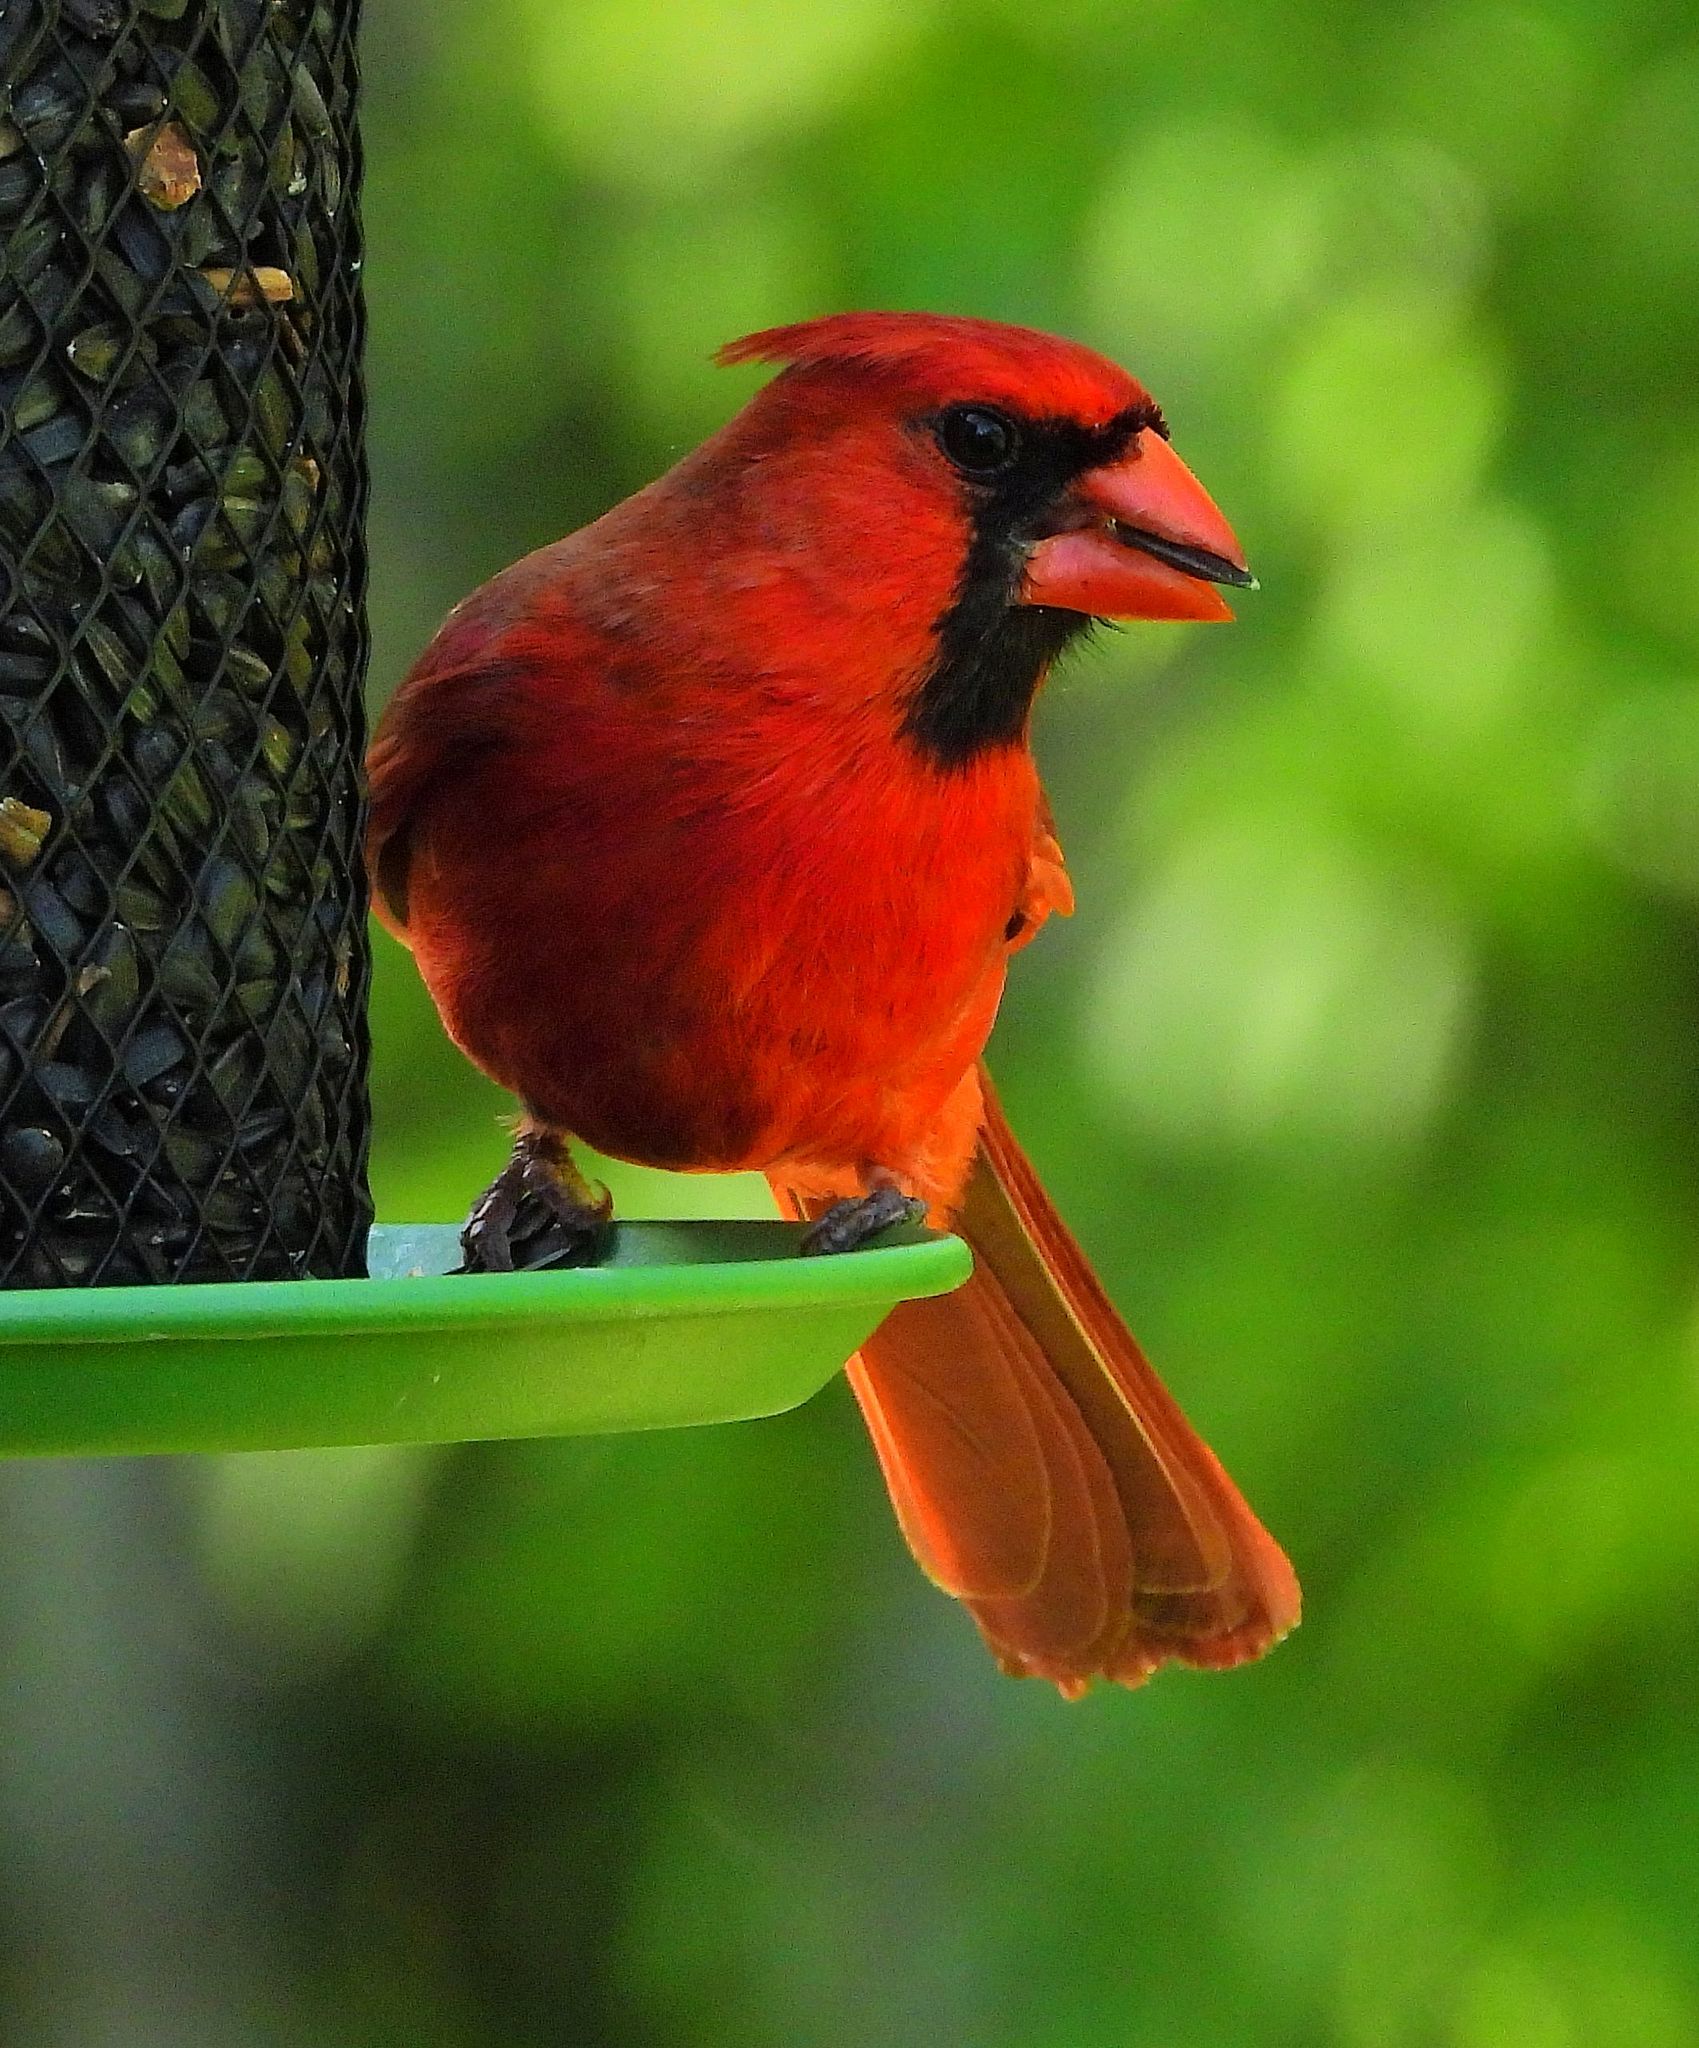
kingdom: Animalia
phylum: Chordata
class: Aves
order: Passeriformes
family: Cardinalidae
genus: Cardinalis
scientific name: Cardinalis cardinalis
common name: Northern cardinal
